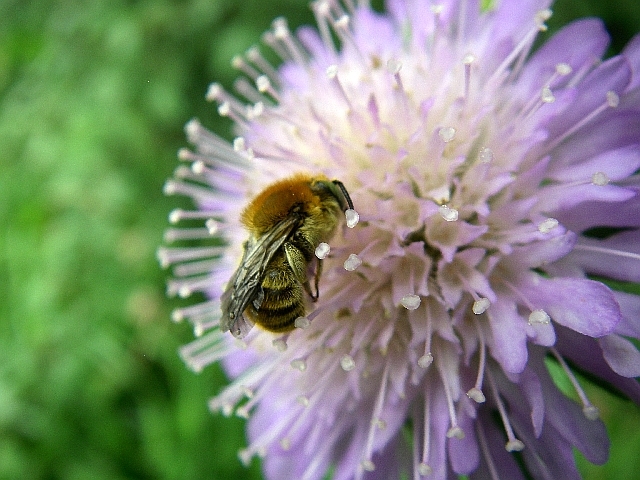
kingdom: Animalia
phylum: Arthropoda
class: Insecta
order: Hymenoptera
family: Megachilidae
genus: Trachusa
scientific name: Trachusa byssina
